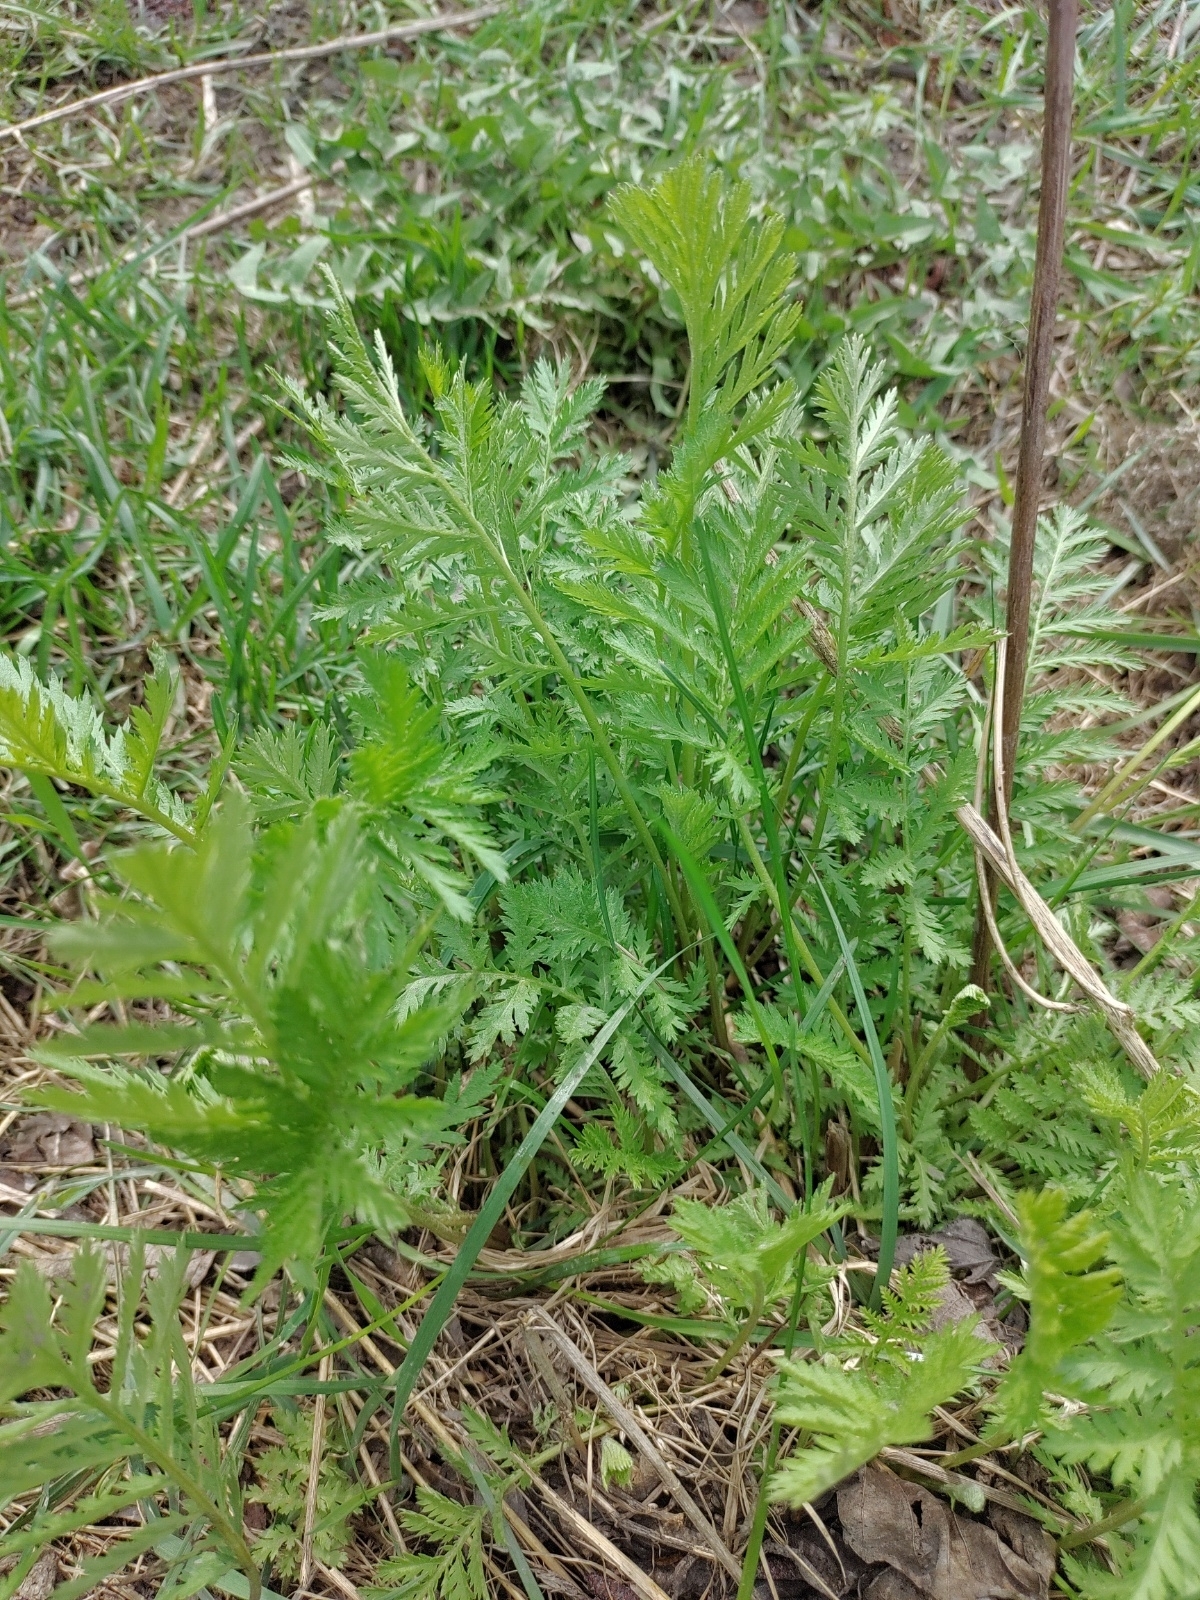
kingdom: Plantae
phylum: Tracheophyta
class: Magnoliopsida
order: Asterales
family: Asteraceae
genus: Tanacetum
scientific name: Tanacetum vulgare
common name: Common tansy
